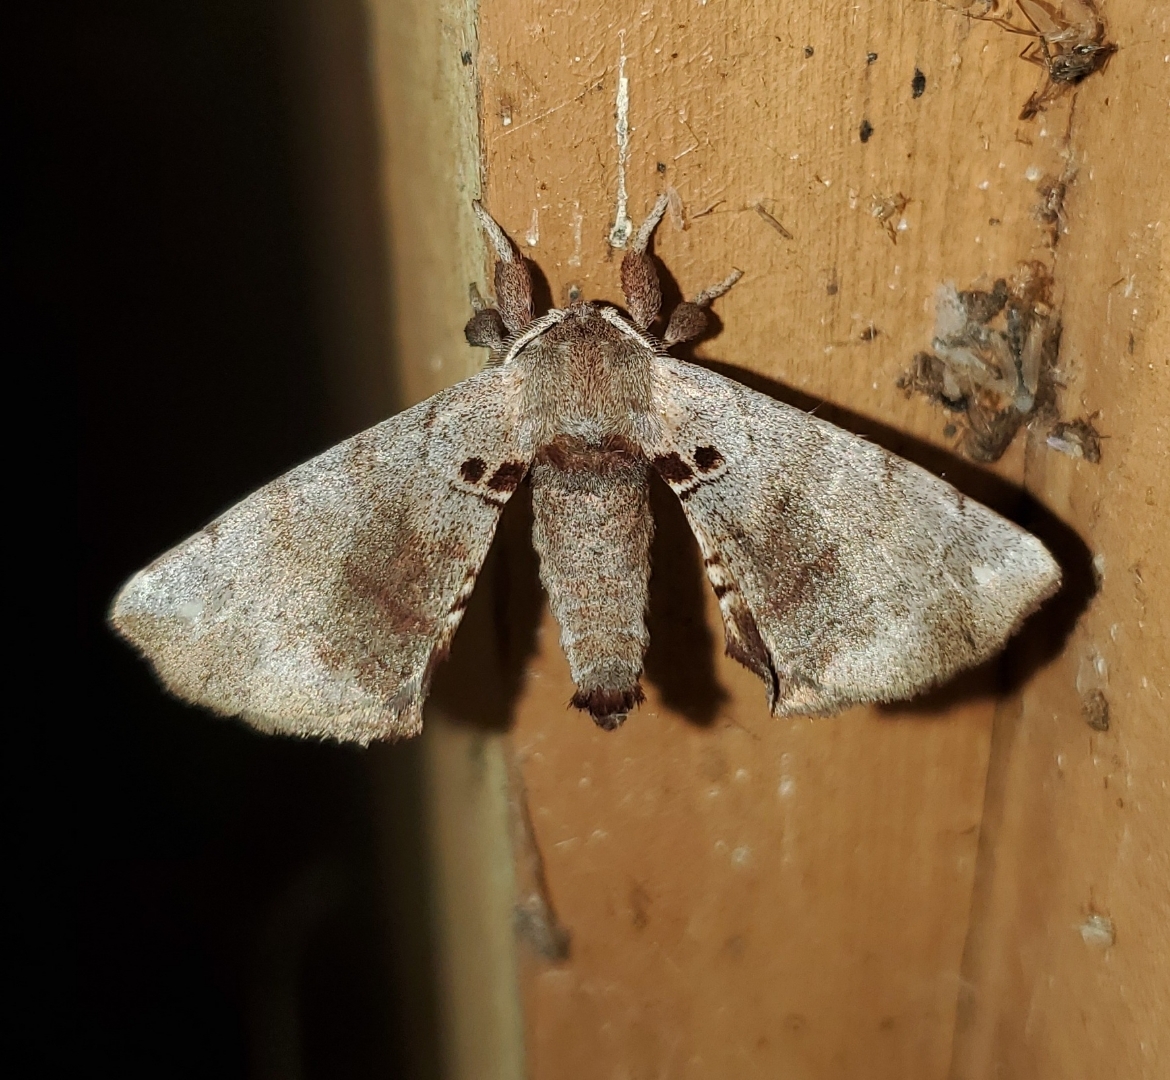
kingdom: Animalia
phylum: Arthropoda
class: Insecta
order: Lepidoptera
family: Apatelodidae
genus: Hygrochroa
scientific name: Hygrochroa Apatelodes torrefacta
